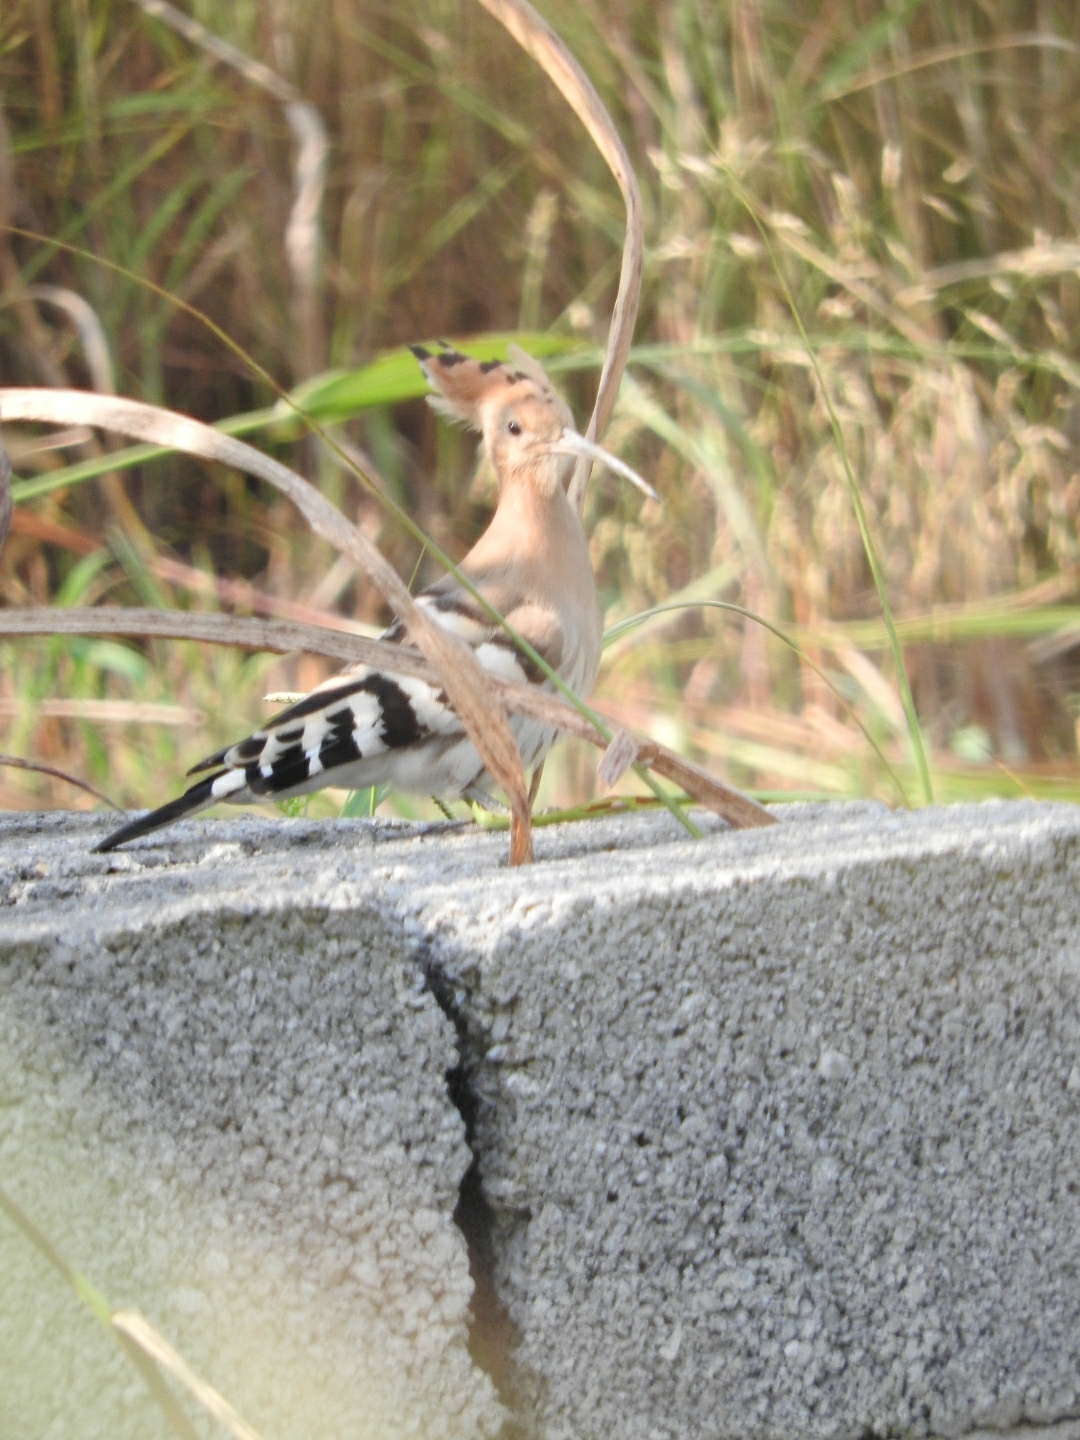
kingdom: Animalia
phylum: Chordata
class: Aves
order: Bucerotiformes
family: Upupidae
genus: Upupa
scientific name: Upupa epops
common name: Eurasian hoopoe
